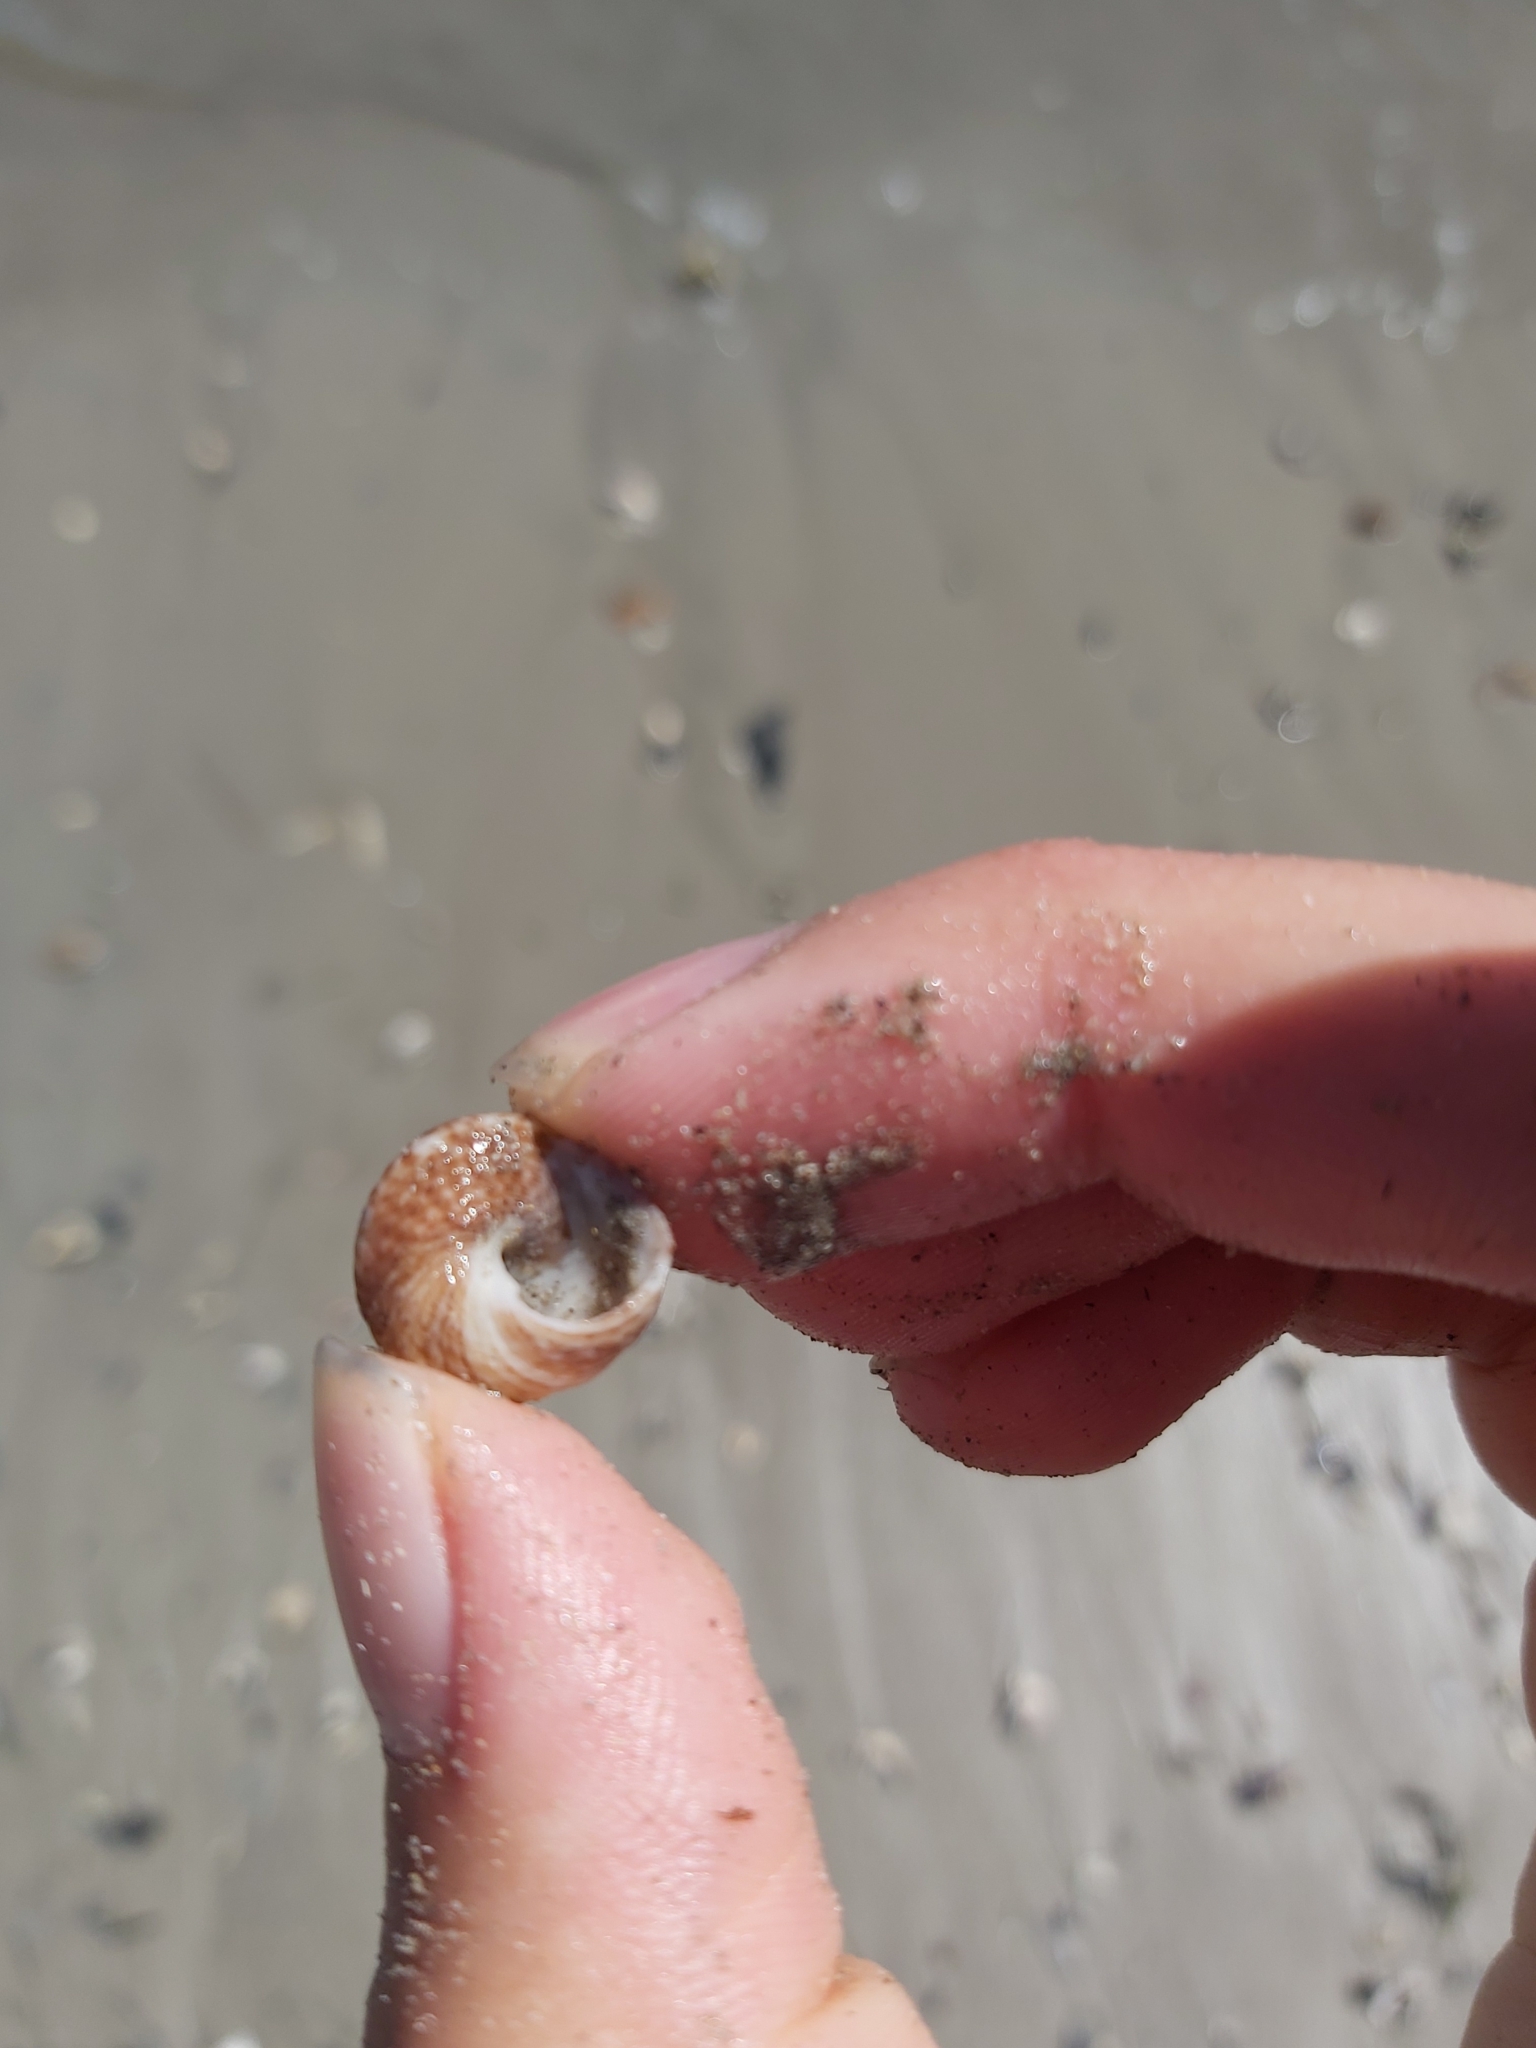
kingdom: Animalia
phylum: Mollusca
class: Gastropoda
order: Trochida
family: Trochidae
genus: Calthalotia
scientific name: Calthalotia fragum
